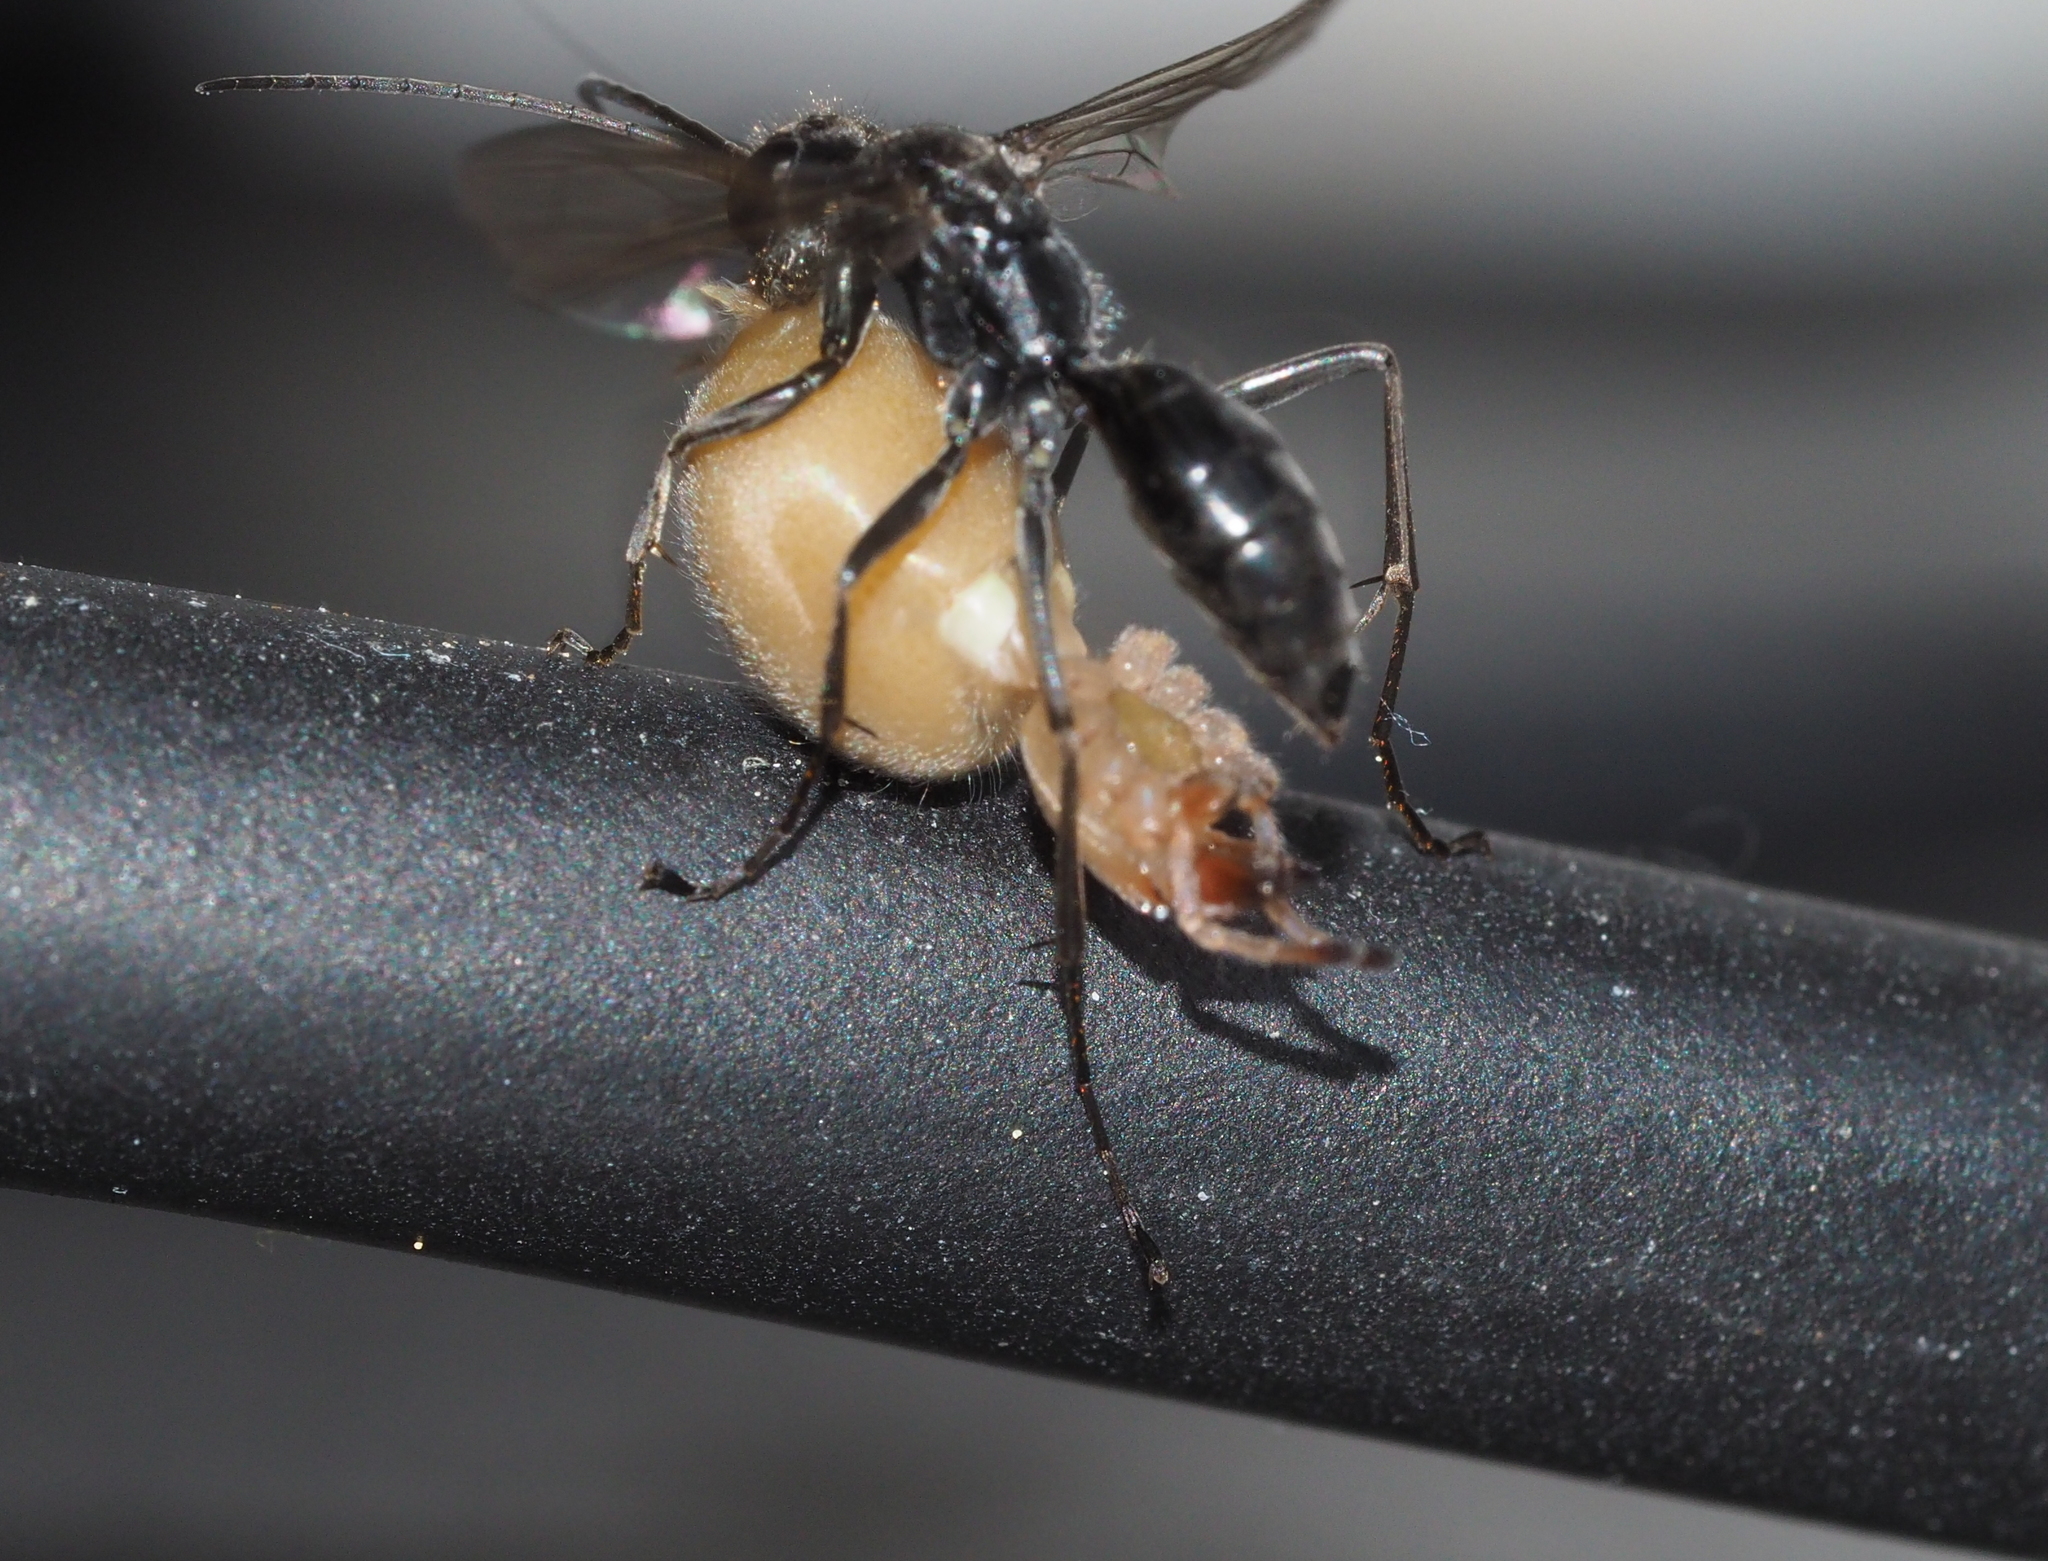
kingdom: Animalia
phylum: Arthropoda
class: Insecta
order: Hymenoptera
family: Pompilidae
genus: Auplopus
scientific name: Auplopus carbonarius
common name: Spider wasp
